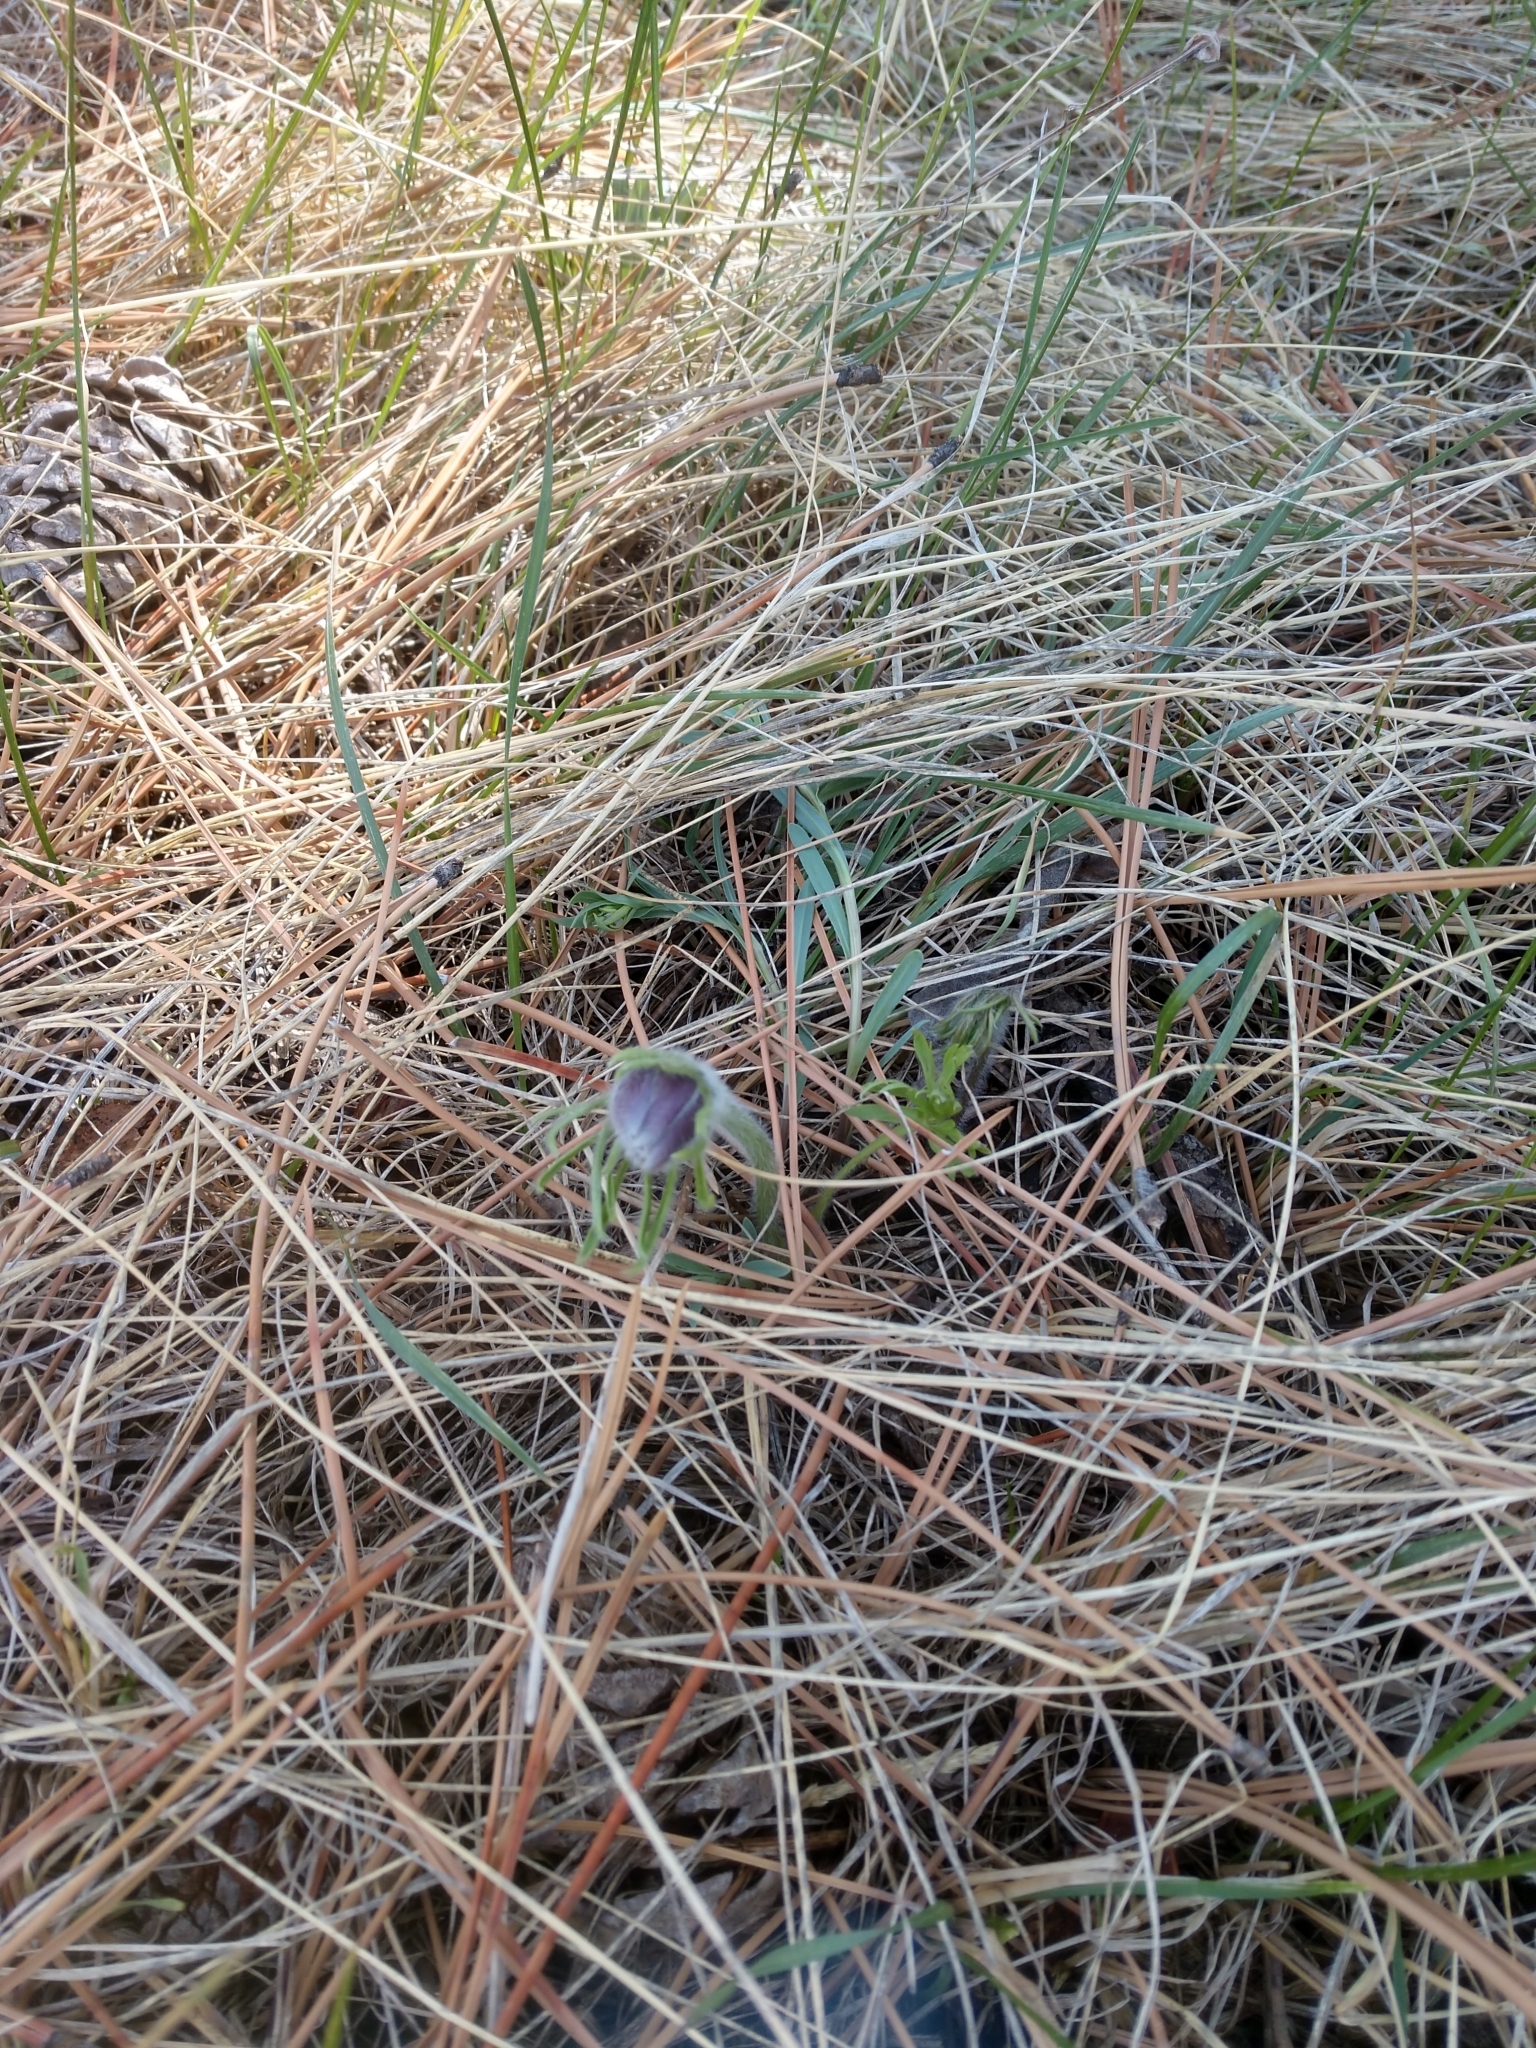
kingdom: Plantae
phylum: Tracheophyta
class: Magnoliopsida
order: Ranunculales
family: Ranunculaceae
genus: Pulsatilla
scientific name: Pulsatilla nuttalliana
